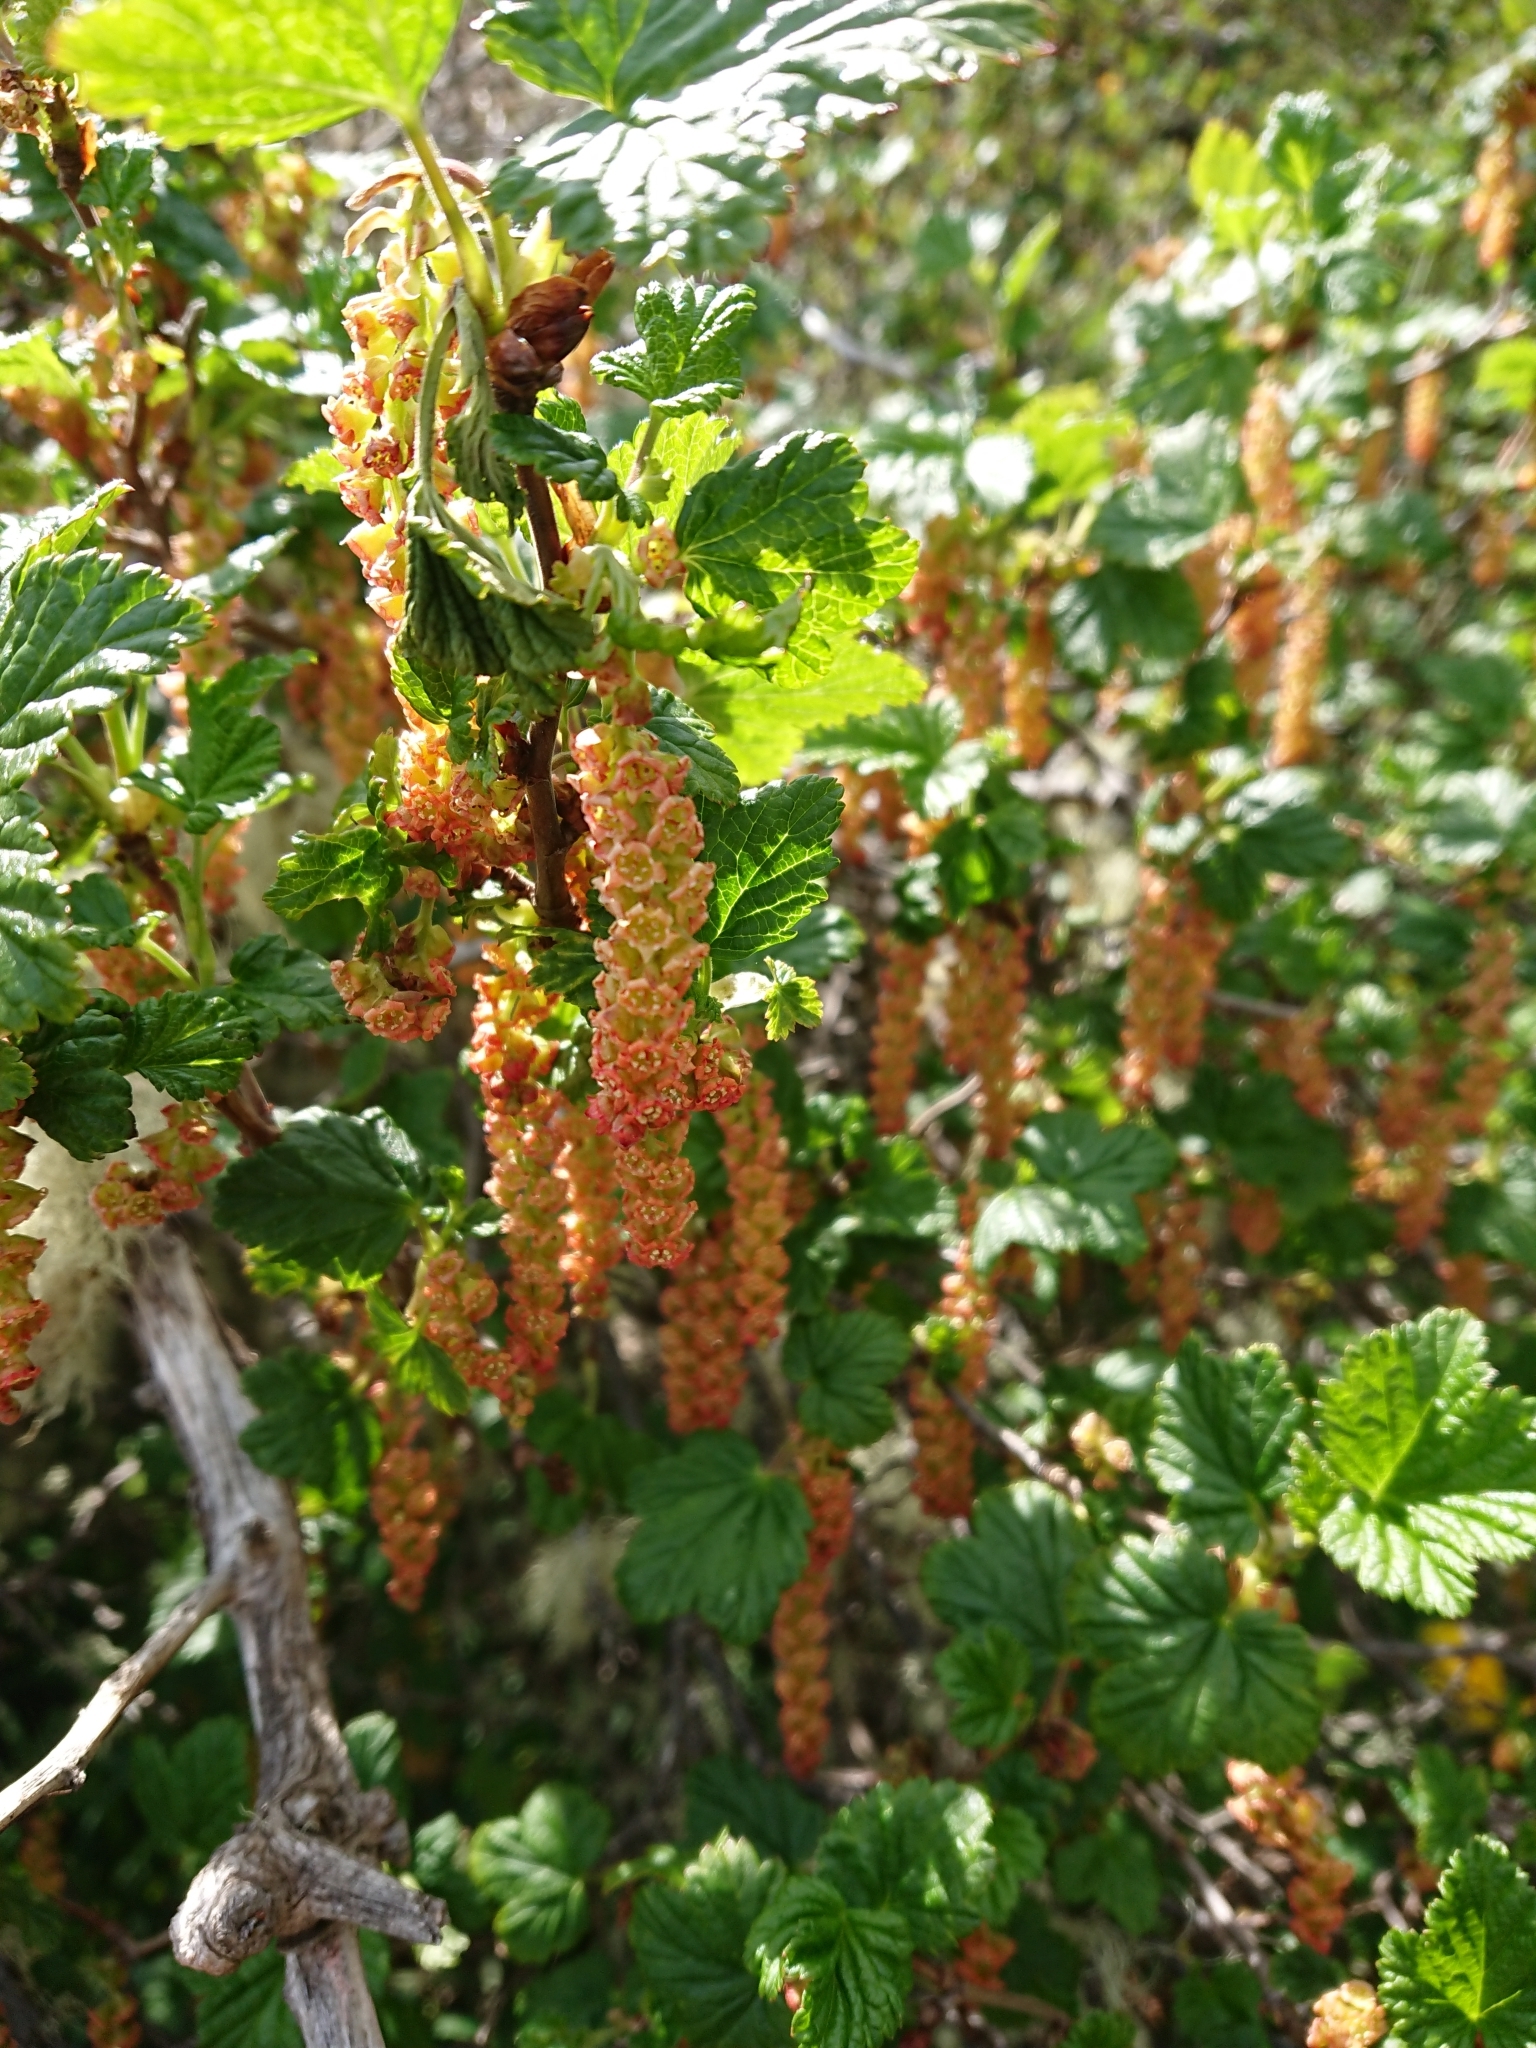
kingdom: Plantae
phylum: Tracheophyta
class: Magnoliopsida
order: Saxifragales
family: Grossulariaceae
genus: Ribes
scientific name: Ribes magellanicum
